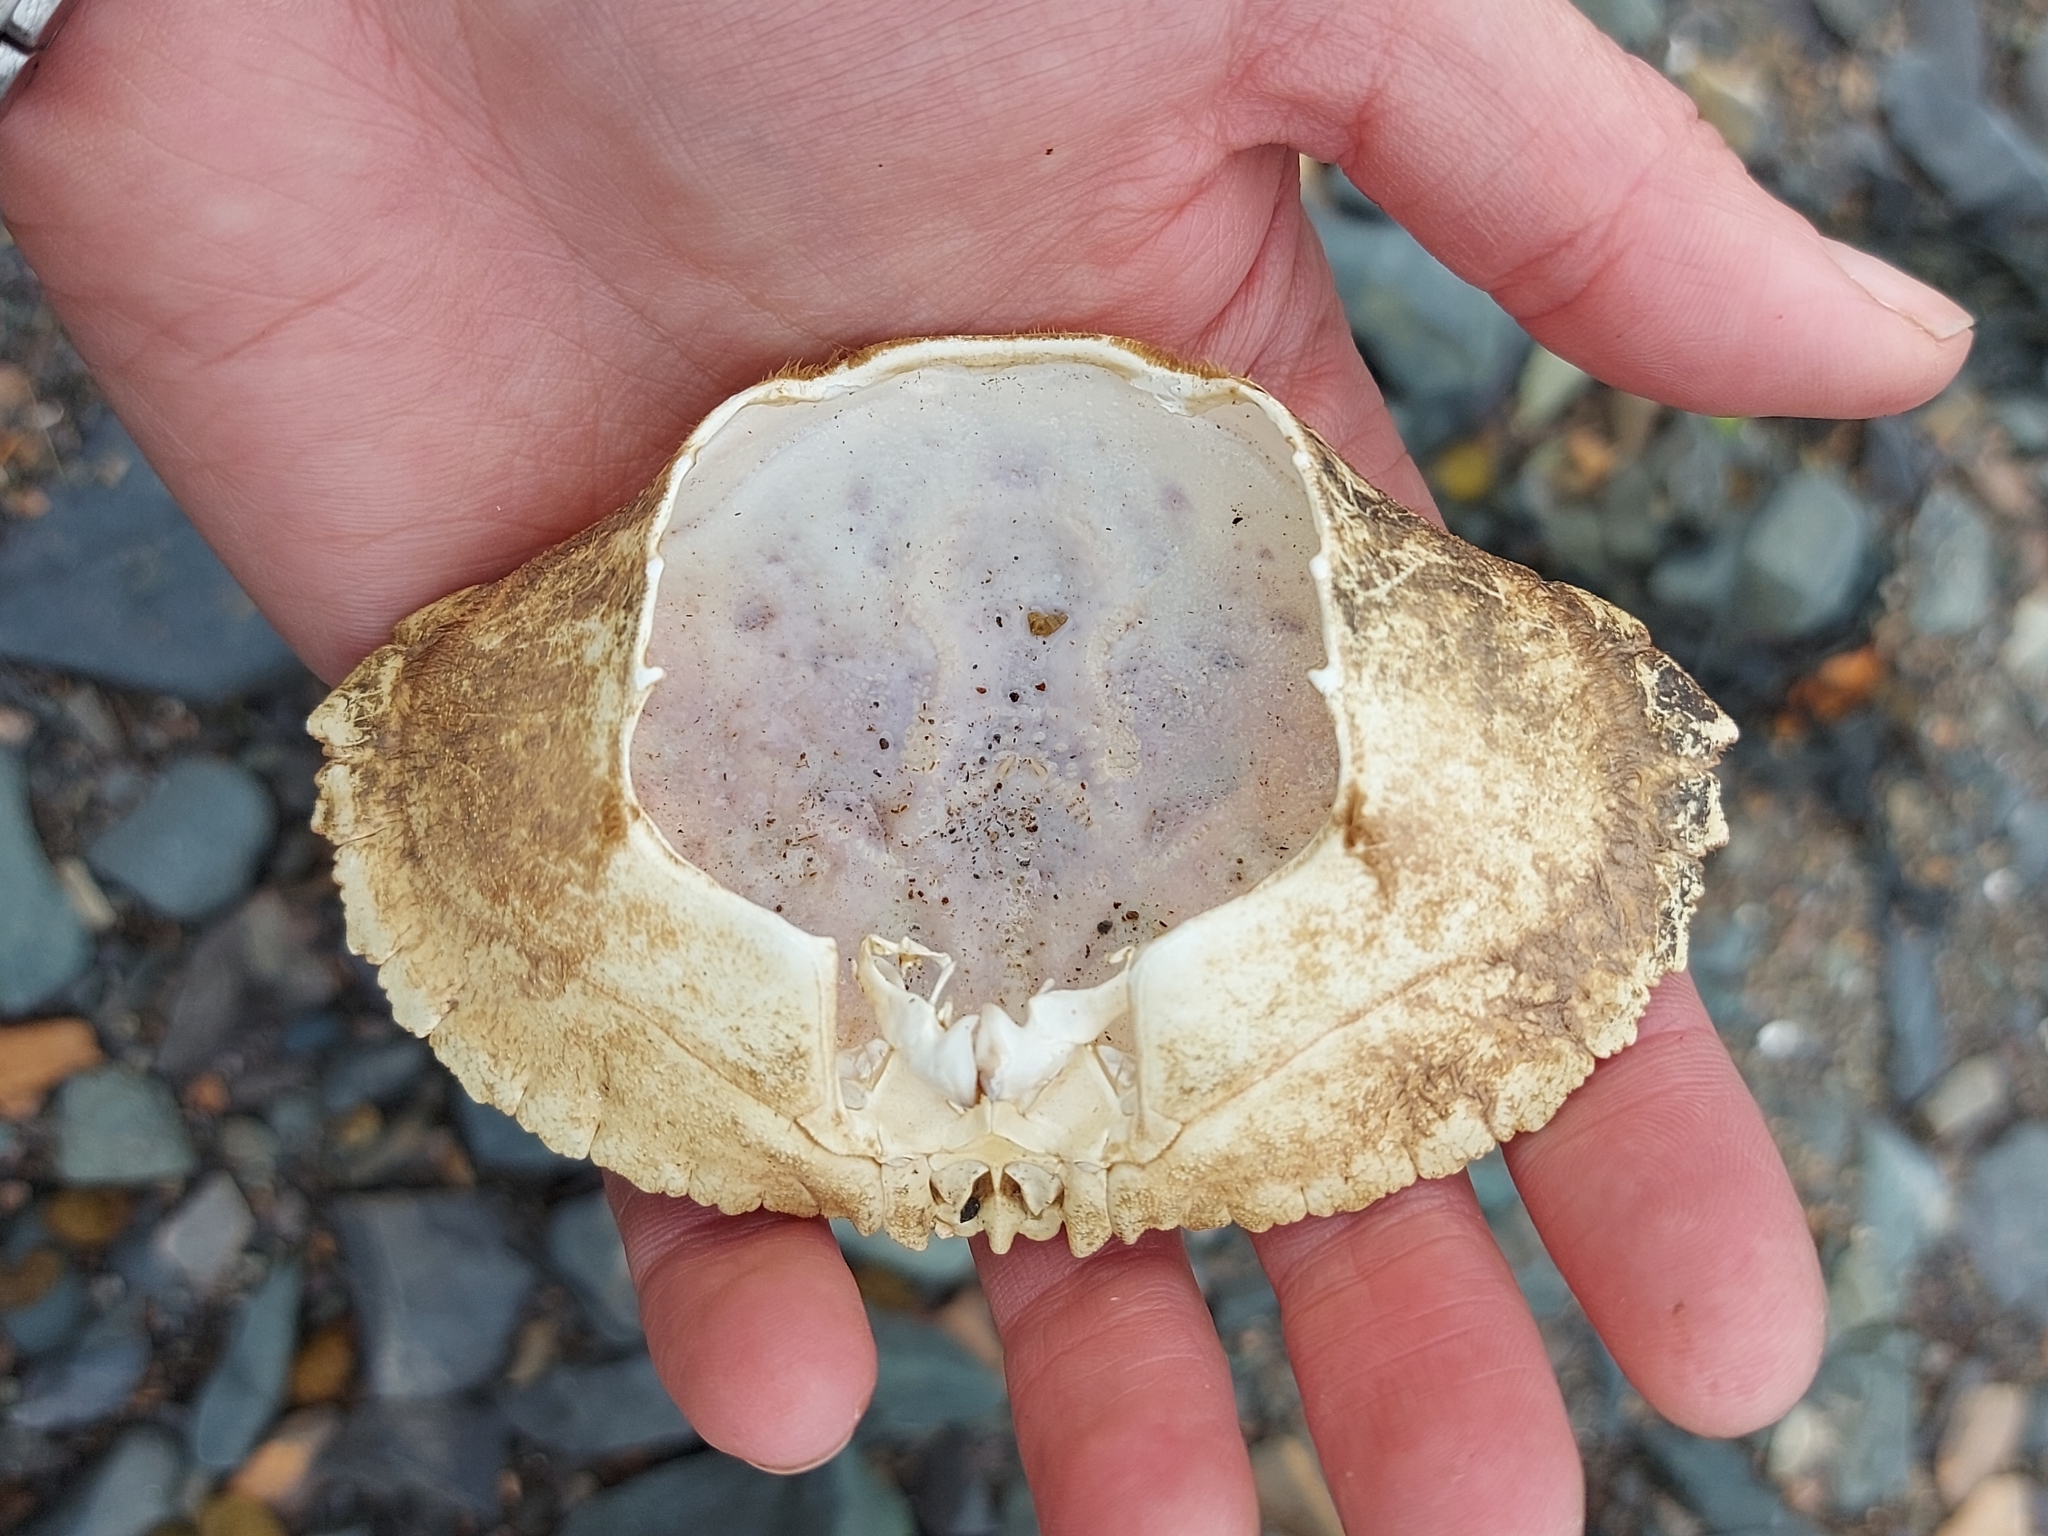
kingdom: Animalia
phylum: Arthropoda
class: Malacostraca
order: Decapoda
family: Cancridae
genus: Cancer
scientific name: Cancer borealis
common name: Jonah crab
